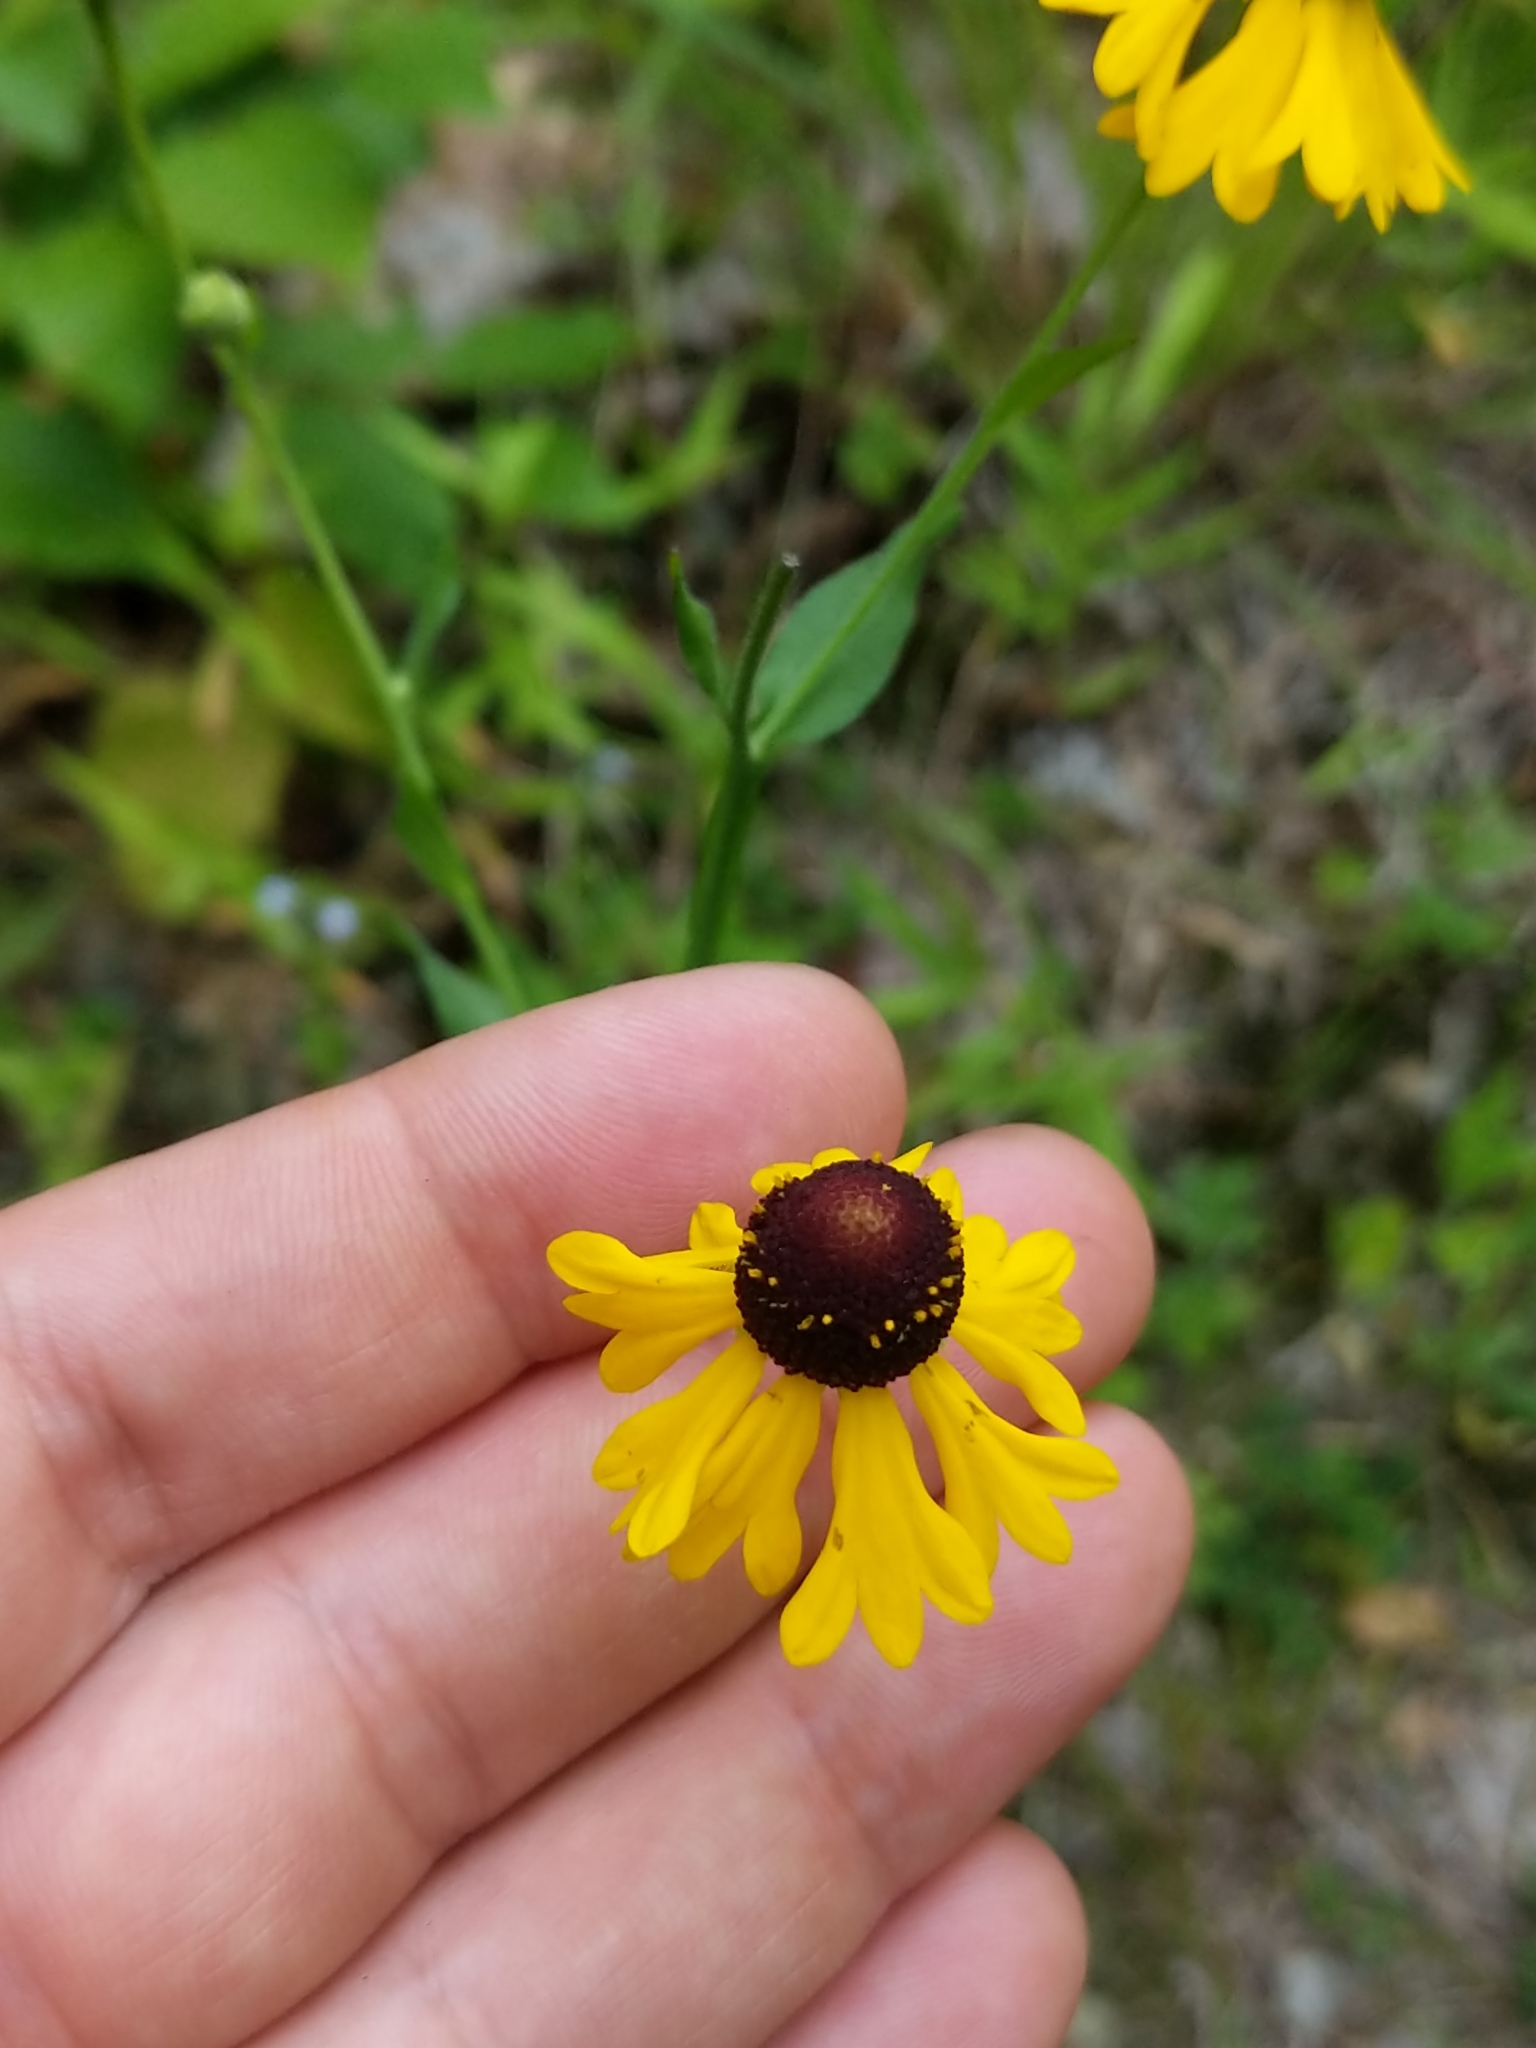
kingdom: Plantae
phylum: Tracheophyta
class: Magnoliopsida
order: Asterales
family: Asteraceae
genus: Helenium
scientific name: Helenium flexuosum
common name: Naked-flowered sneezeweed
